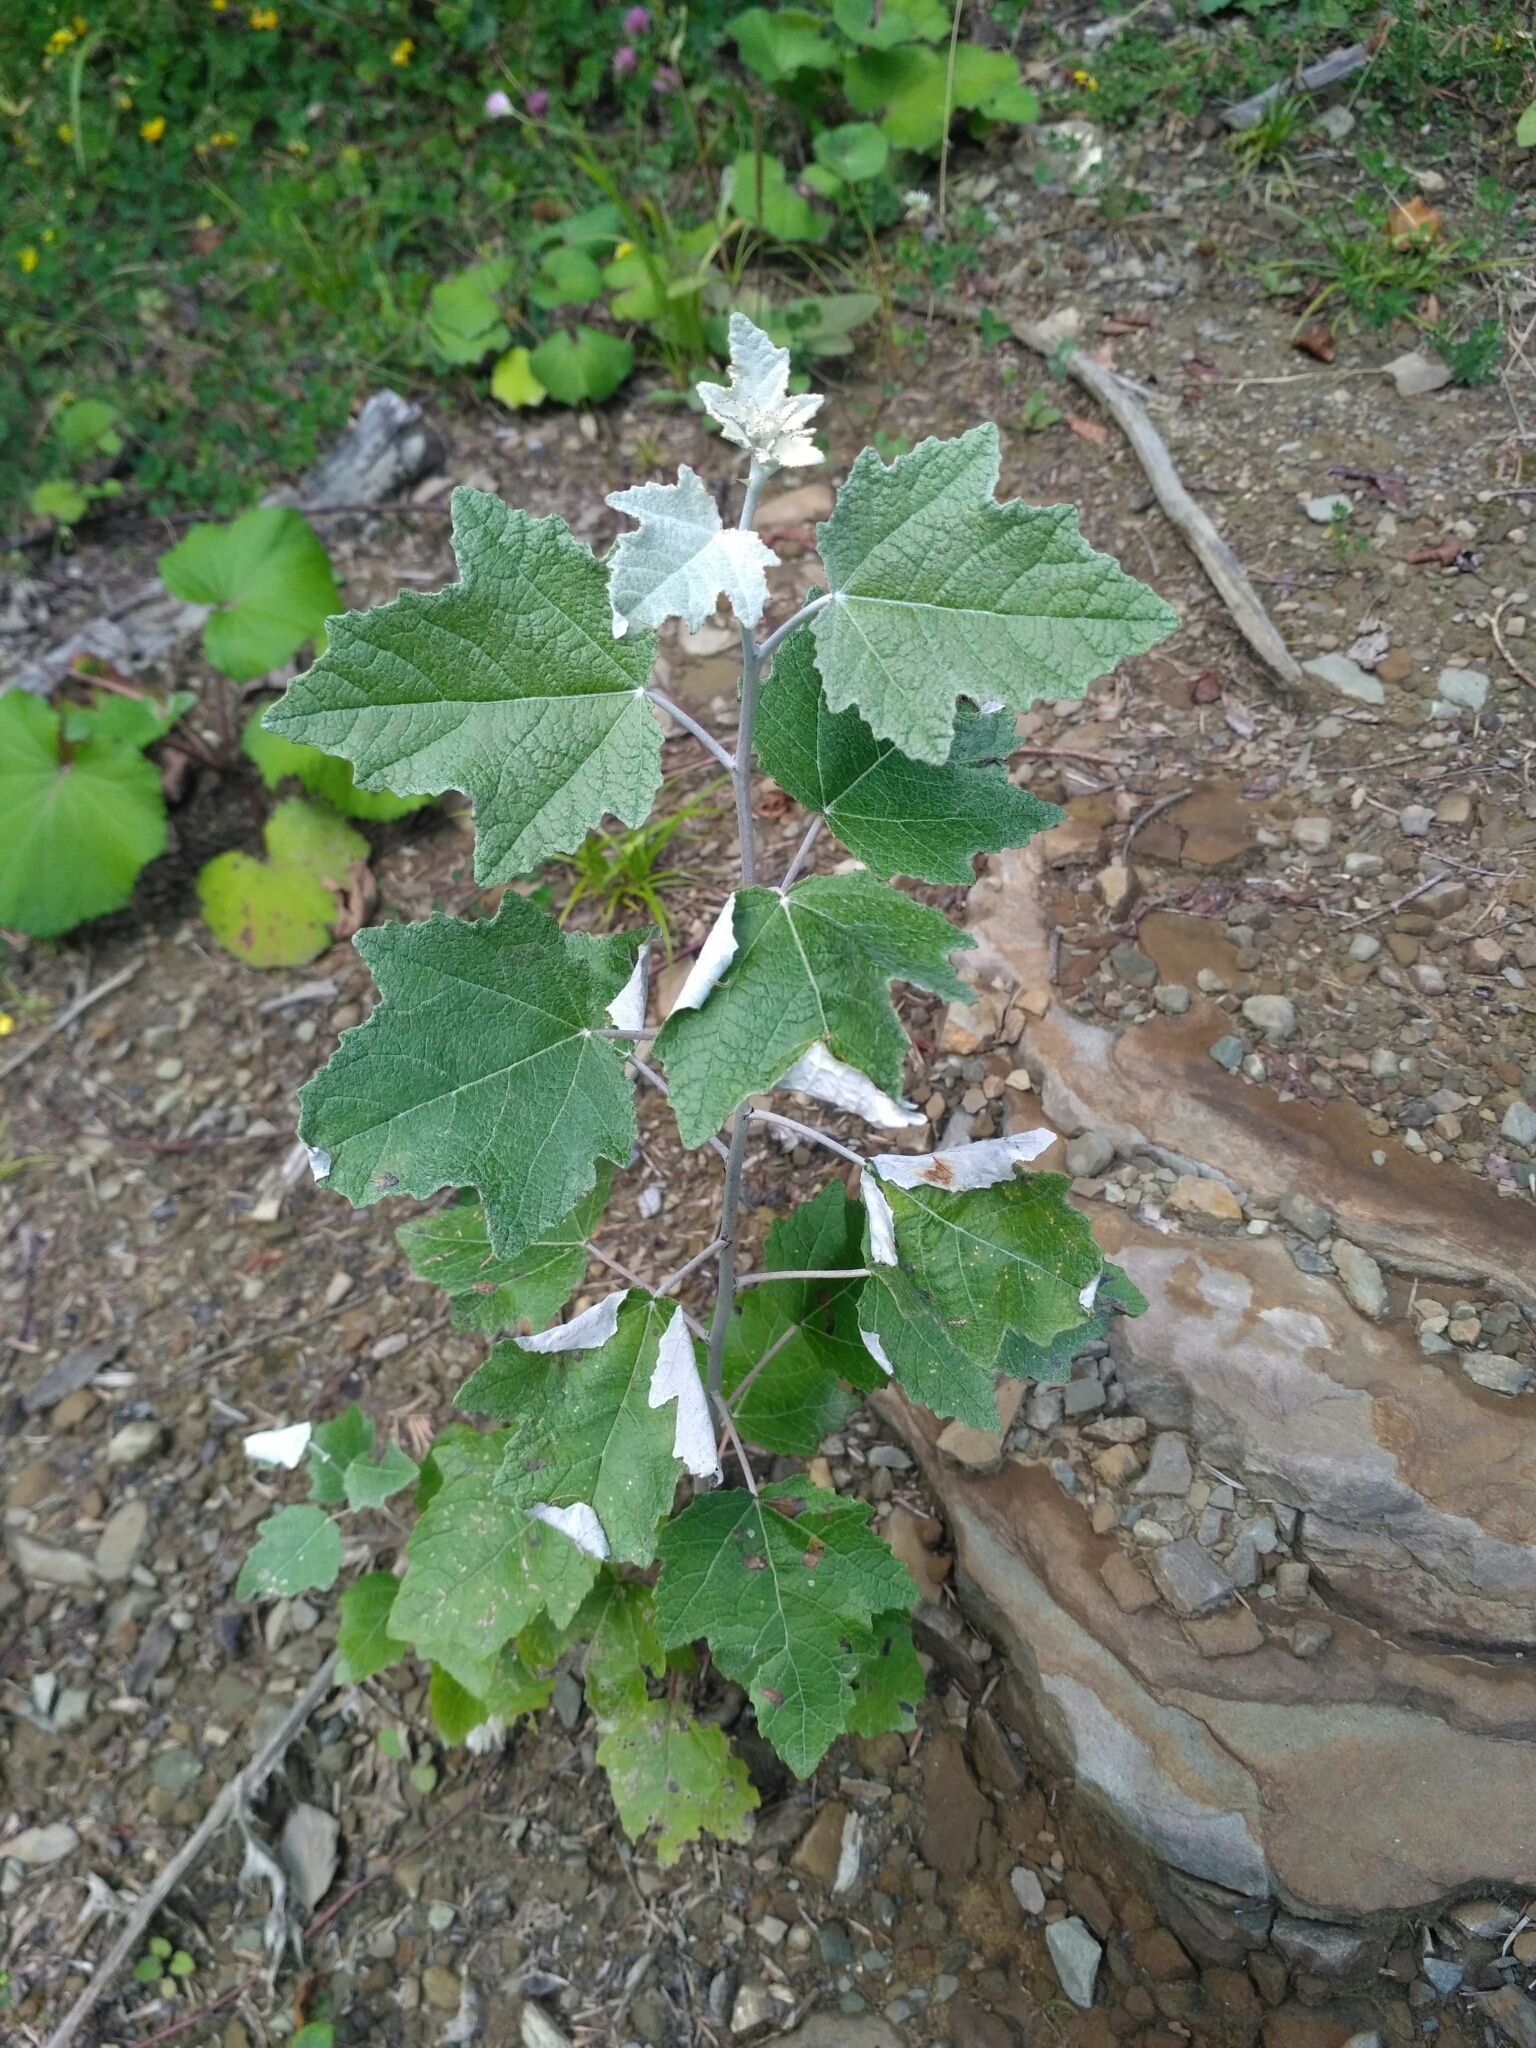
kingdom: Plantae
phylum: Tracheophyta
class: Magnoliopsida
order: Malpighiales
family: Salicaceae
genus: Populus
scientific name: Populus alba
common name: White poplar
